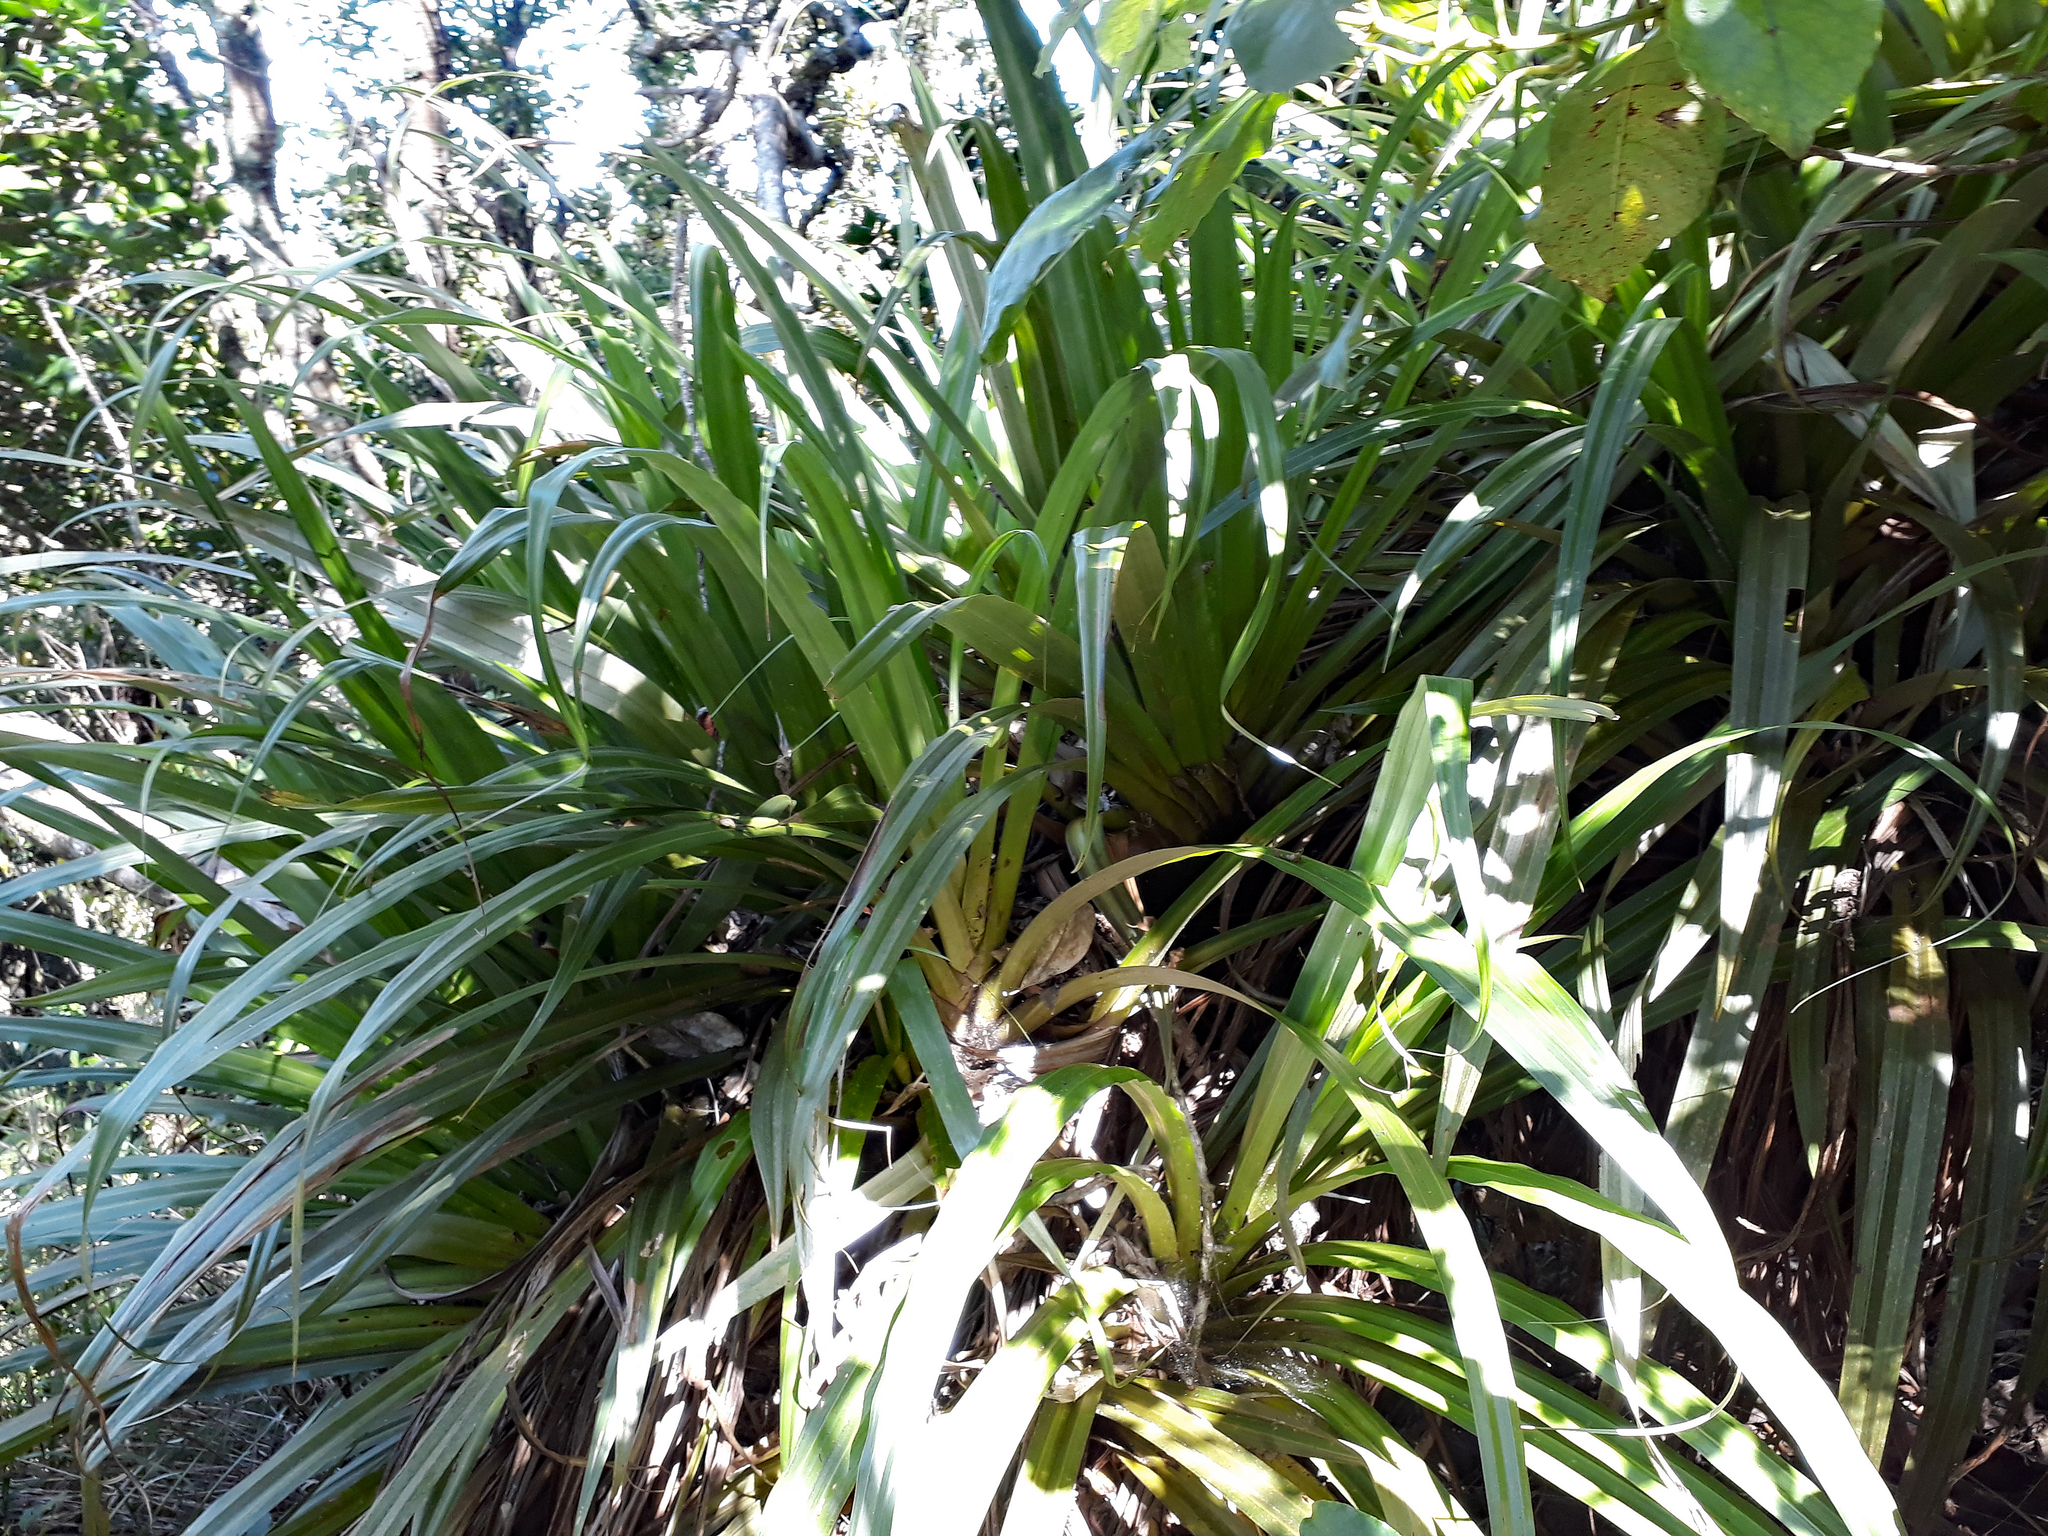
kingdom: Plantae
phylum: Tracheophyta
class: Liliopsida
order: Asparagales
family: Asteliaceae
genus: Astelia
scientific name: Astelia hastata
